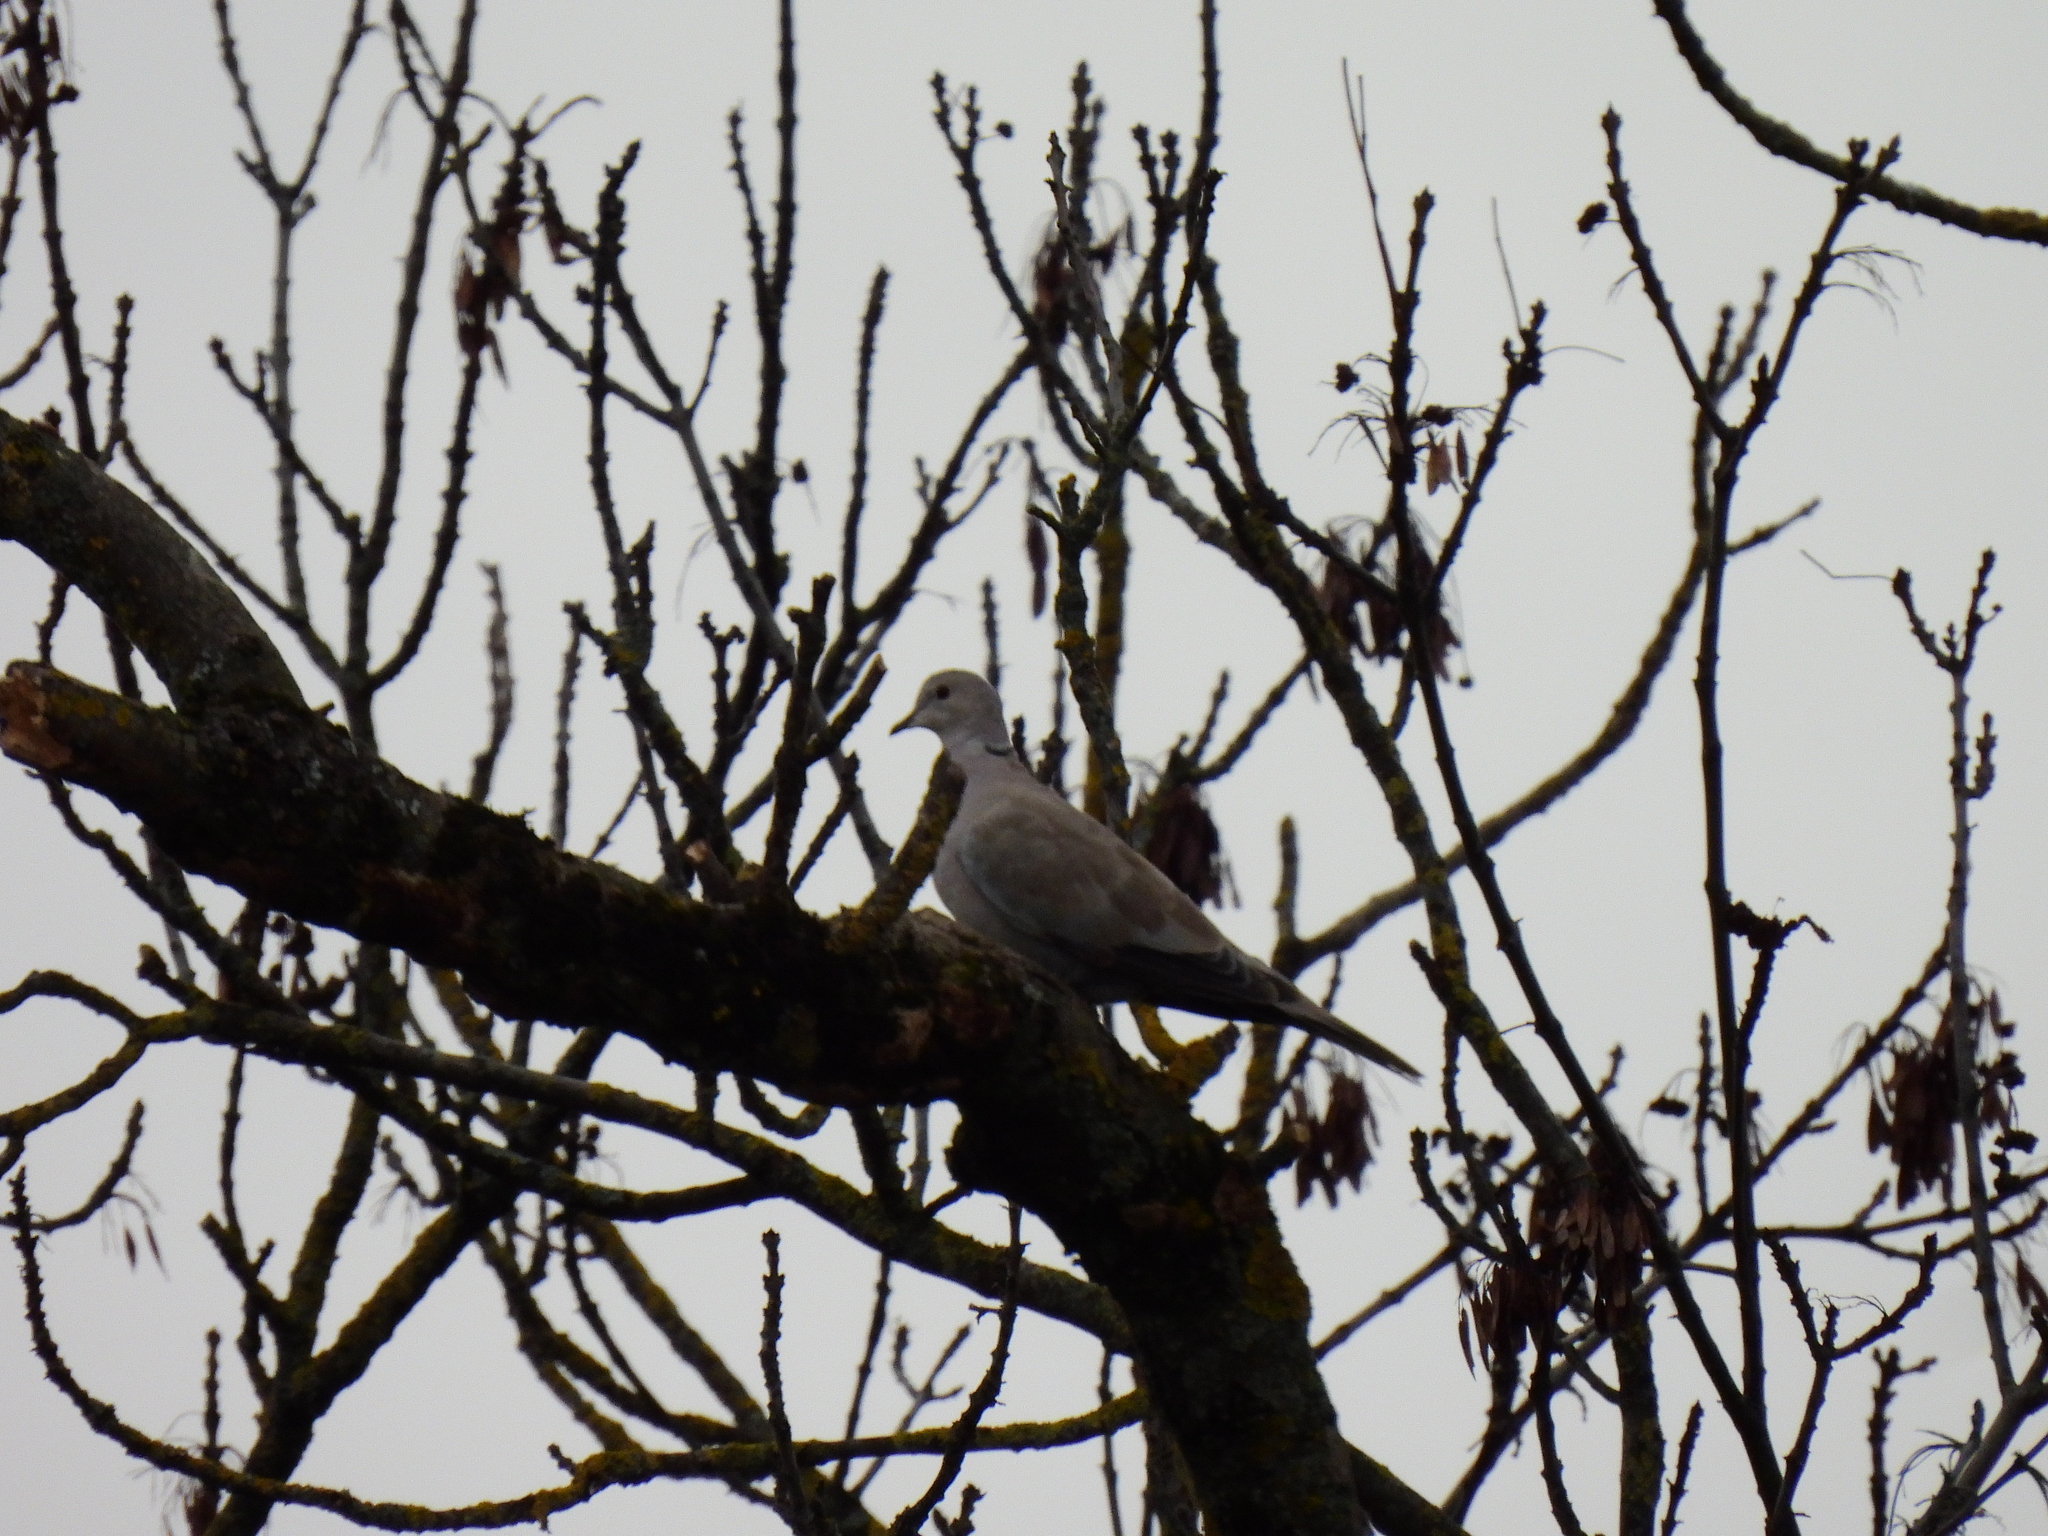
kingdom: Animalia
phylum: Chordata
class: Aves
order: Columbiformes
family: Columbidae
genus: Streptopelia
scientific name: Streptopelia decaocto
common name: Eurasian collared dove
